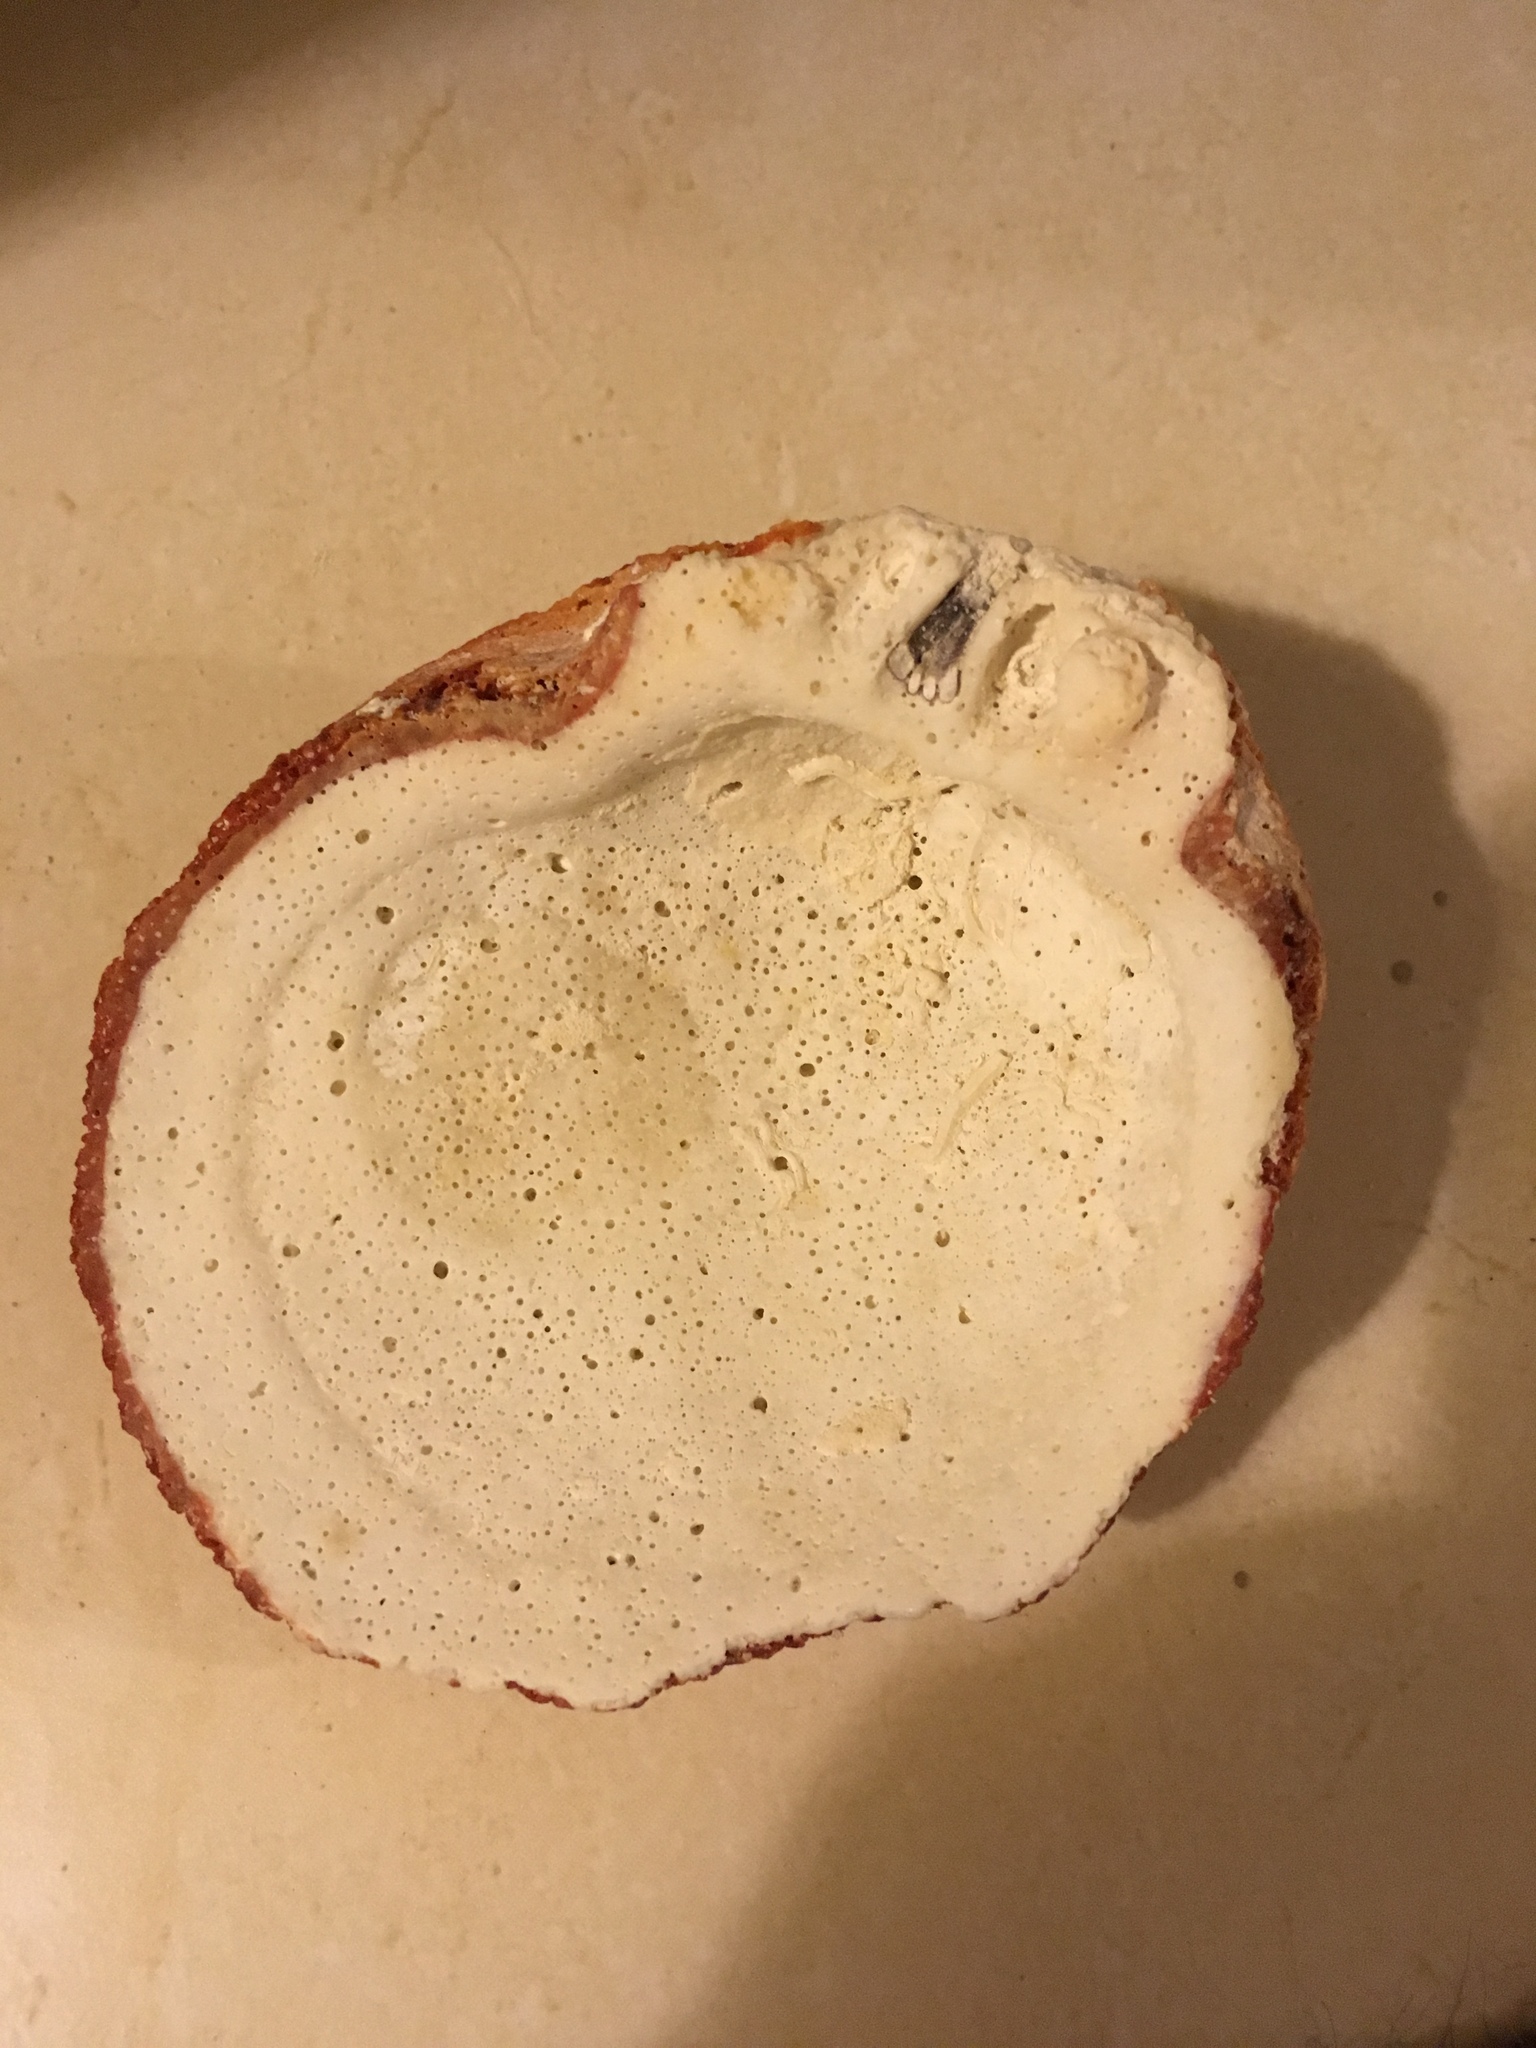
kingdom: Animalia
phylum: Mollusca
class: Bivalvia
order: Pectinida
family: Spondylidae
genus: Spondylus
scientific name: Spondylus tenuis
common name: Digitate thorny oyster
